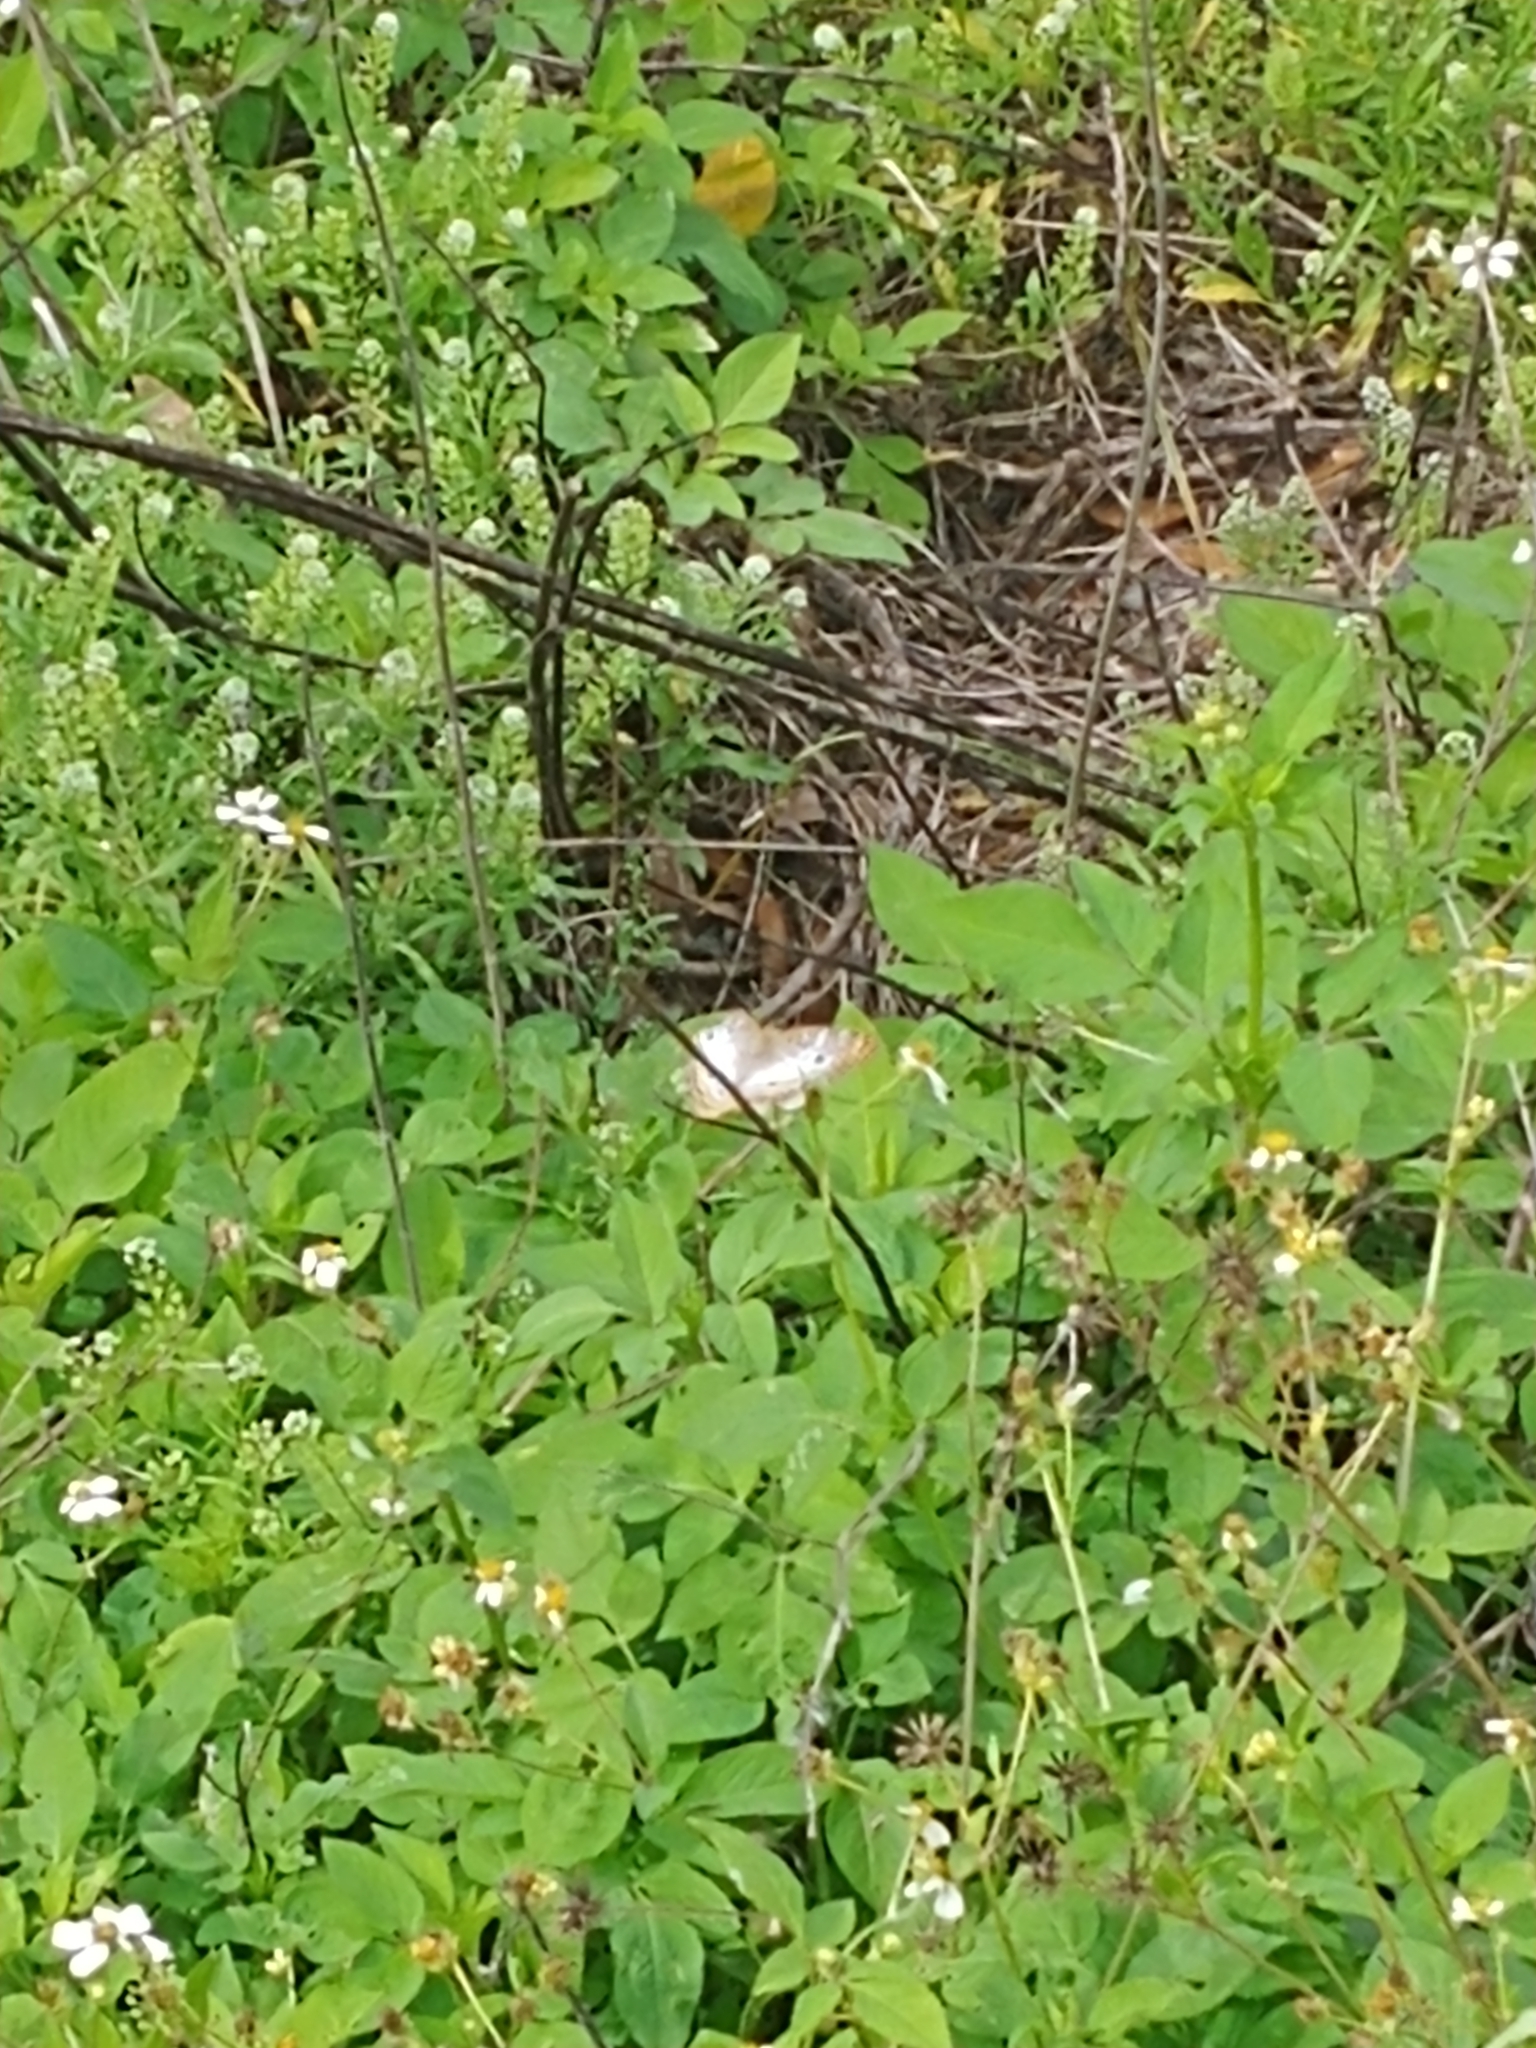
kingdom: Animalia
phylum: Arthropoda
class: Insecta
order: Lepidoptera
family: Nymphalidae
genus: Anartia
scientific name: Anartia jatrophae
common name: White peacock
